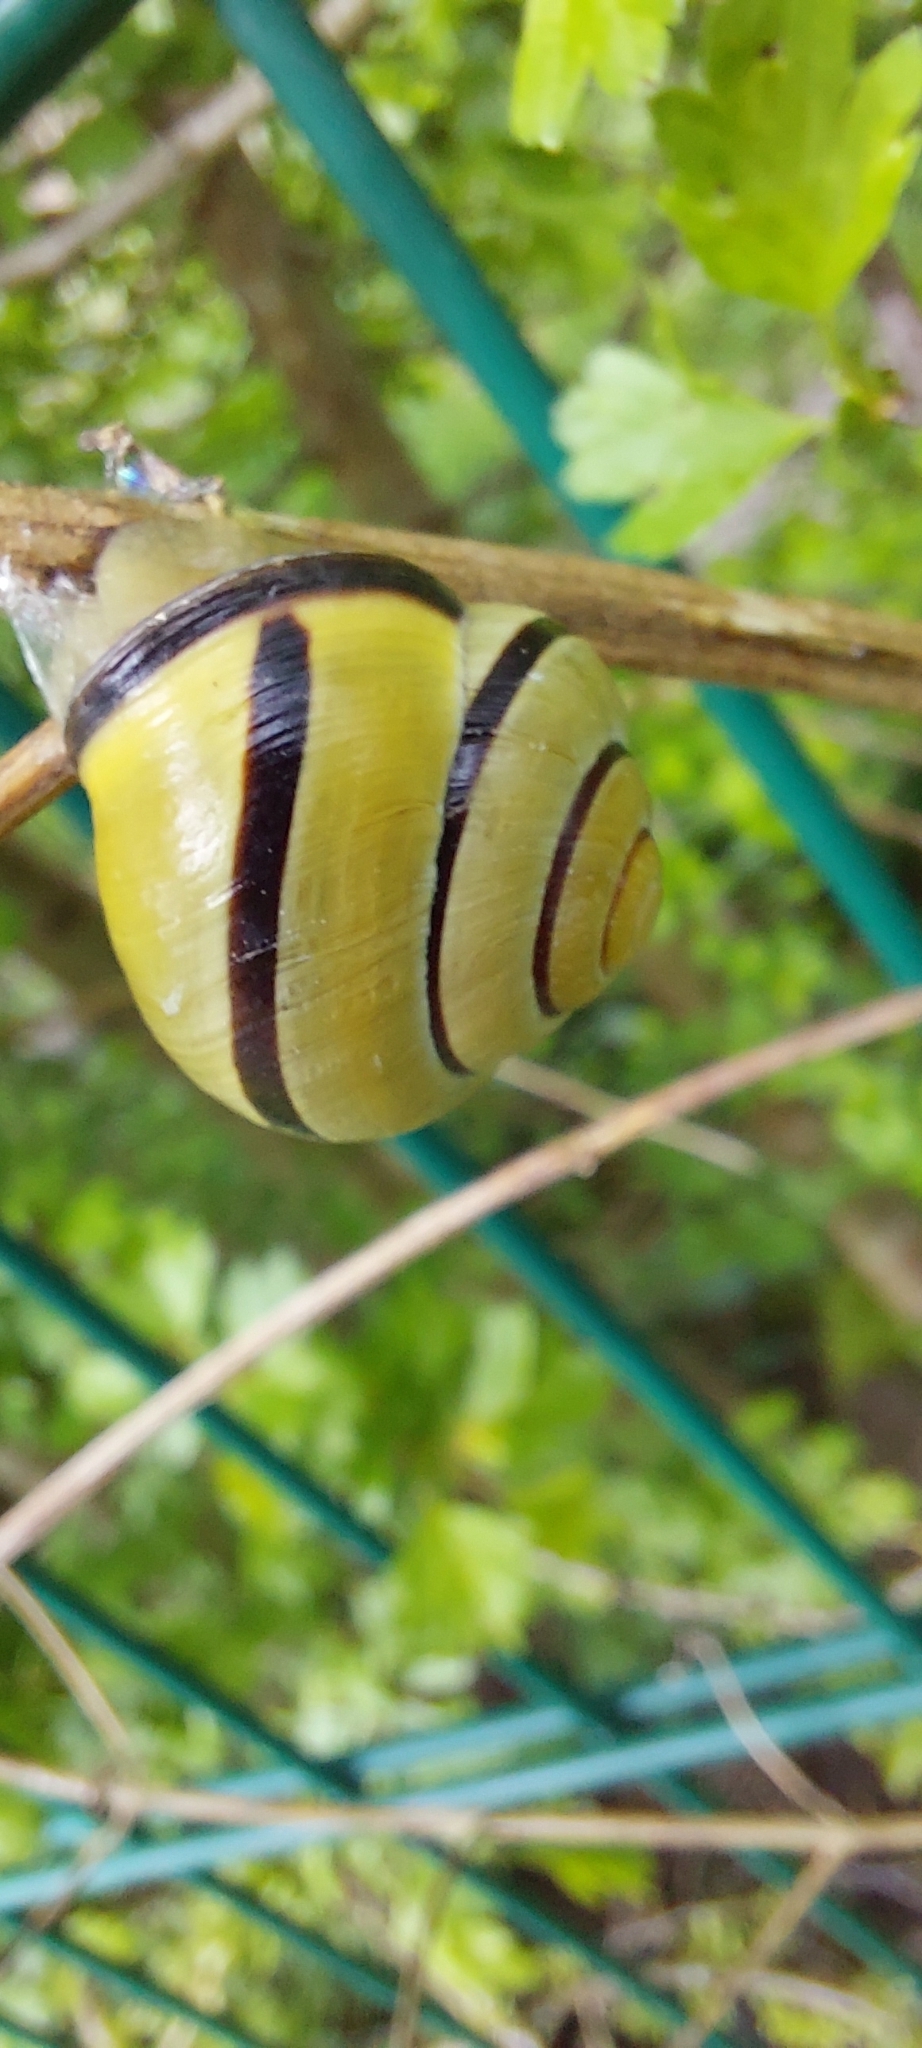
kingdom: Animalia
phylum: Mollusca
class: Gastropoda
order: Stylommatophora
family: Helicidae
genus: Cepaea
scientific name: Cepaea nemoralis
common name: Grovesnail
